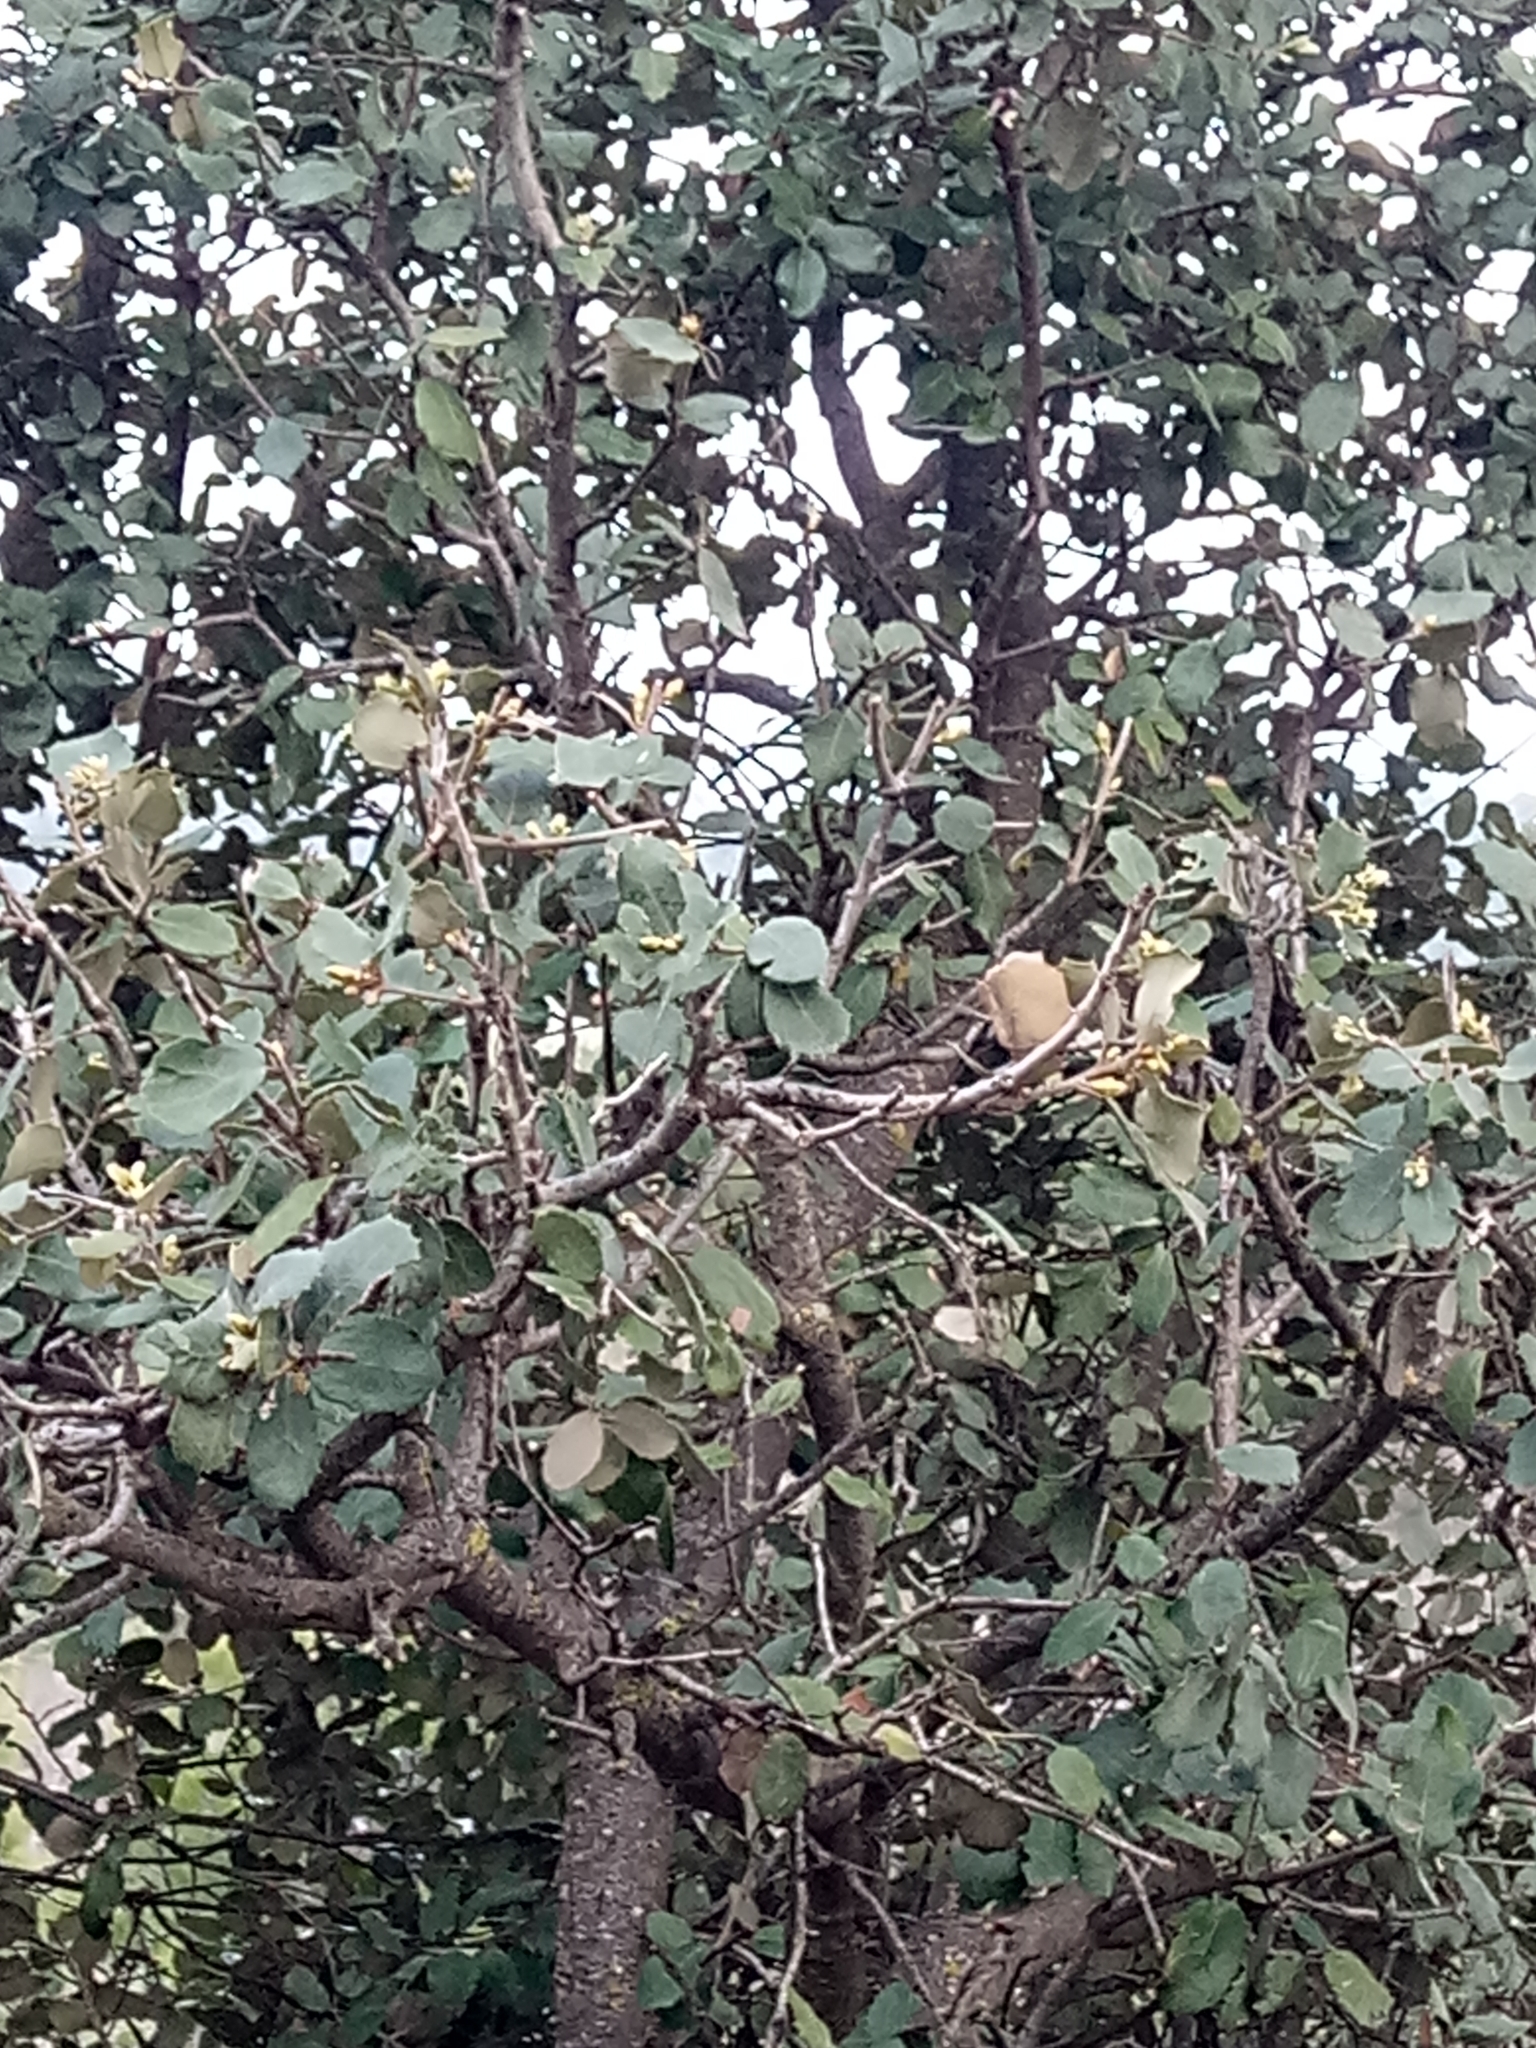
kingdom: Plantae
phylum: Tracheophyta
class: Magnoliopsida
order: Fagales
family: Fagaceae
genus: Quercus
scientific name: Quercus rotundifolia
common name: Holm oak
